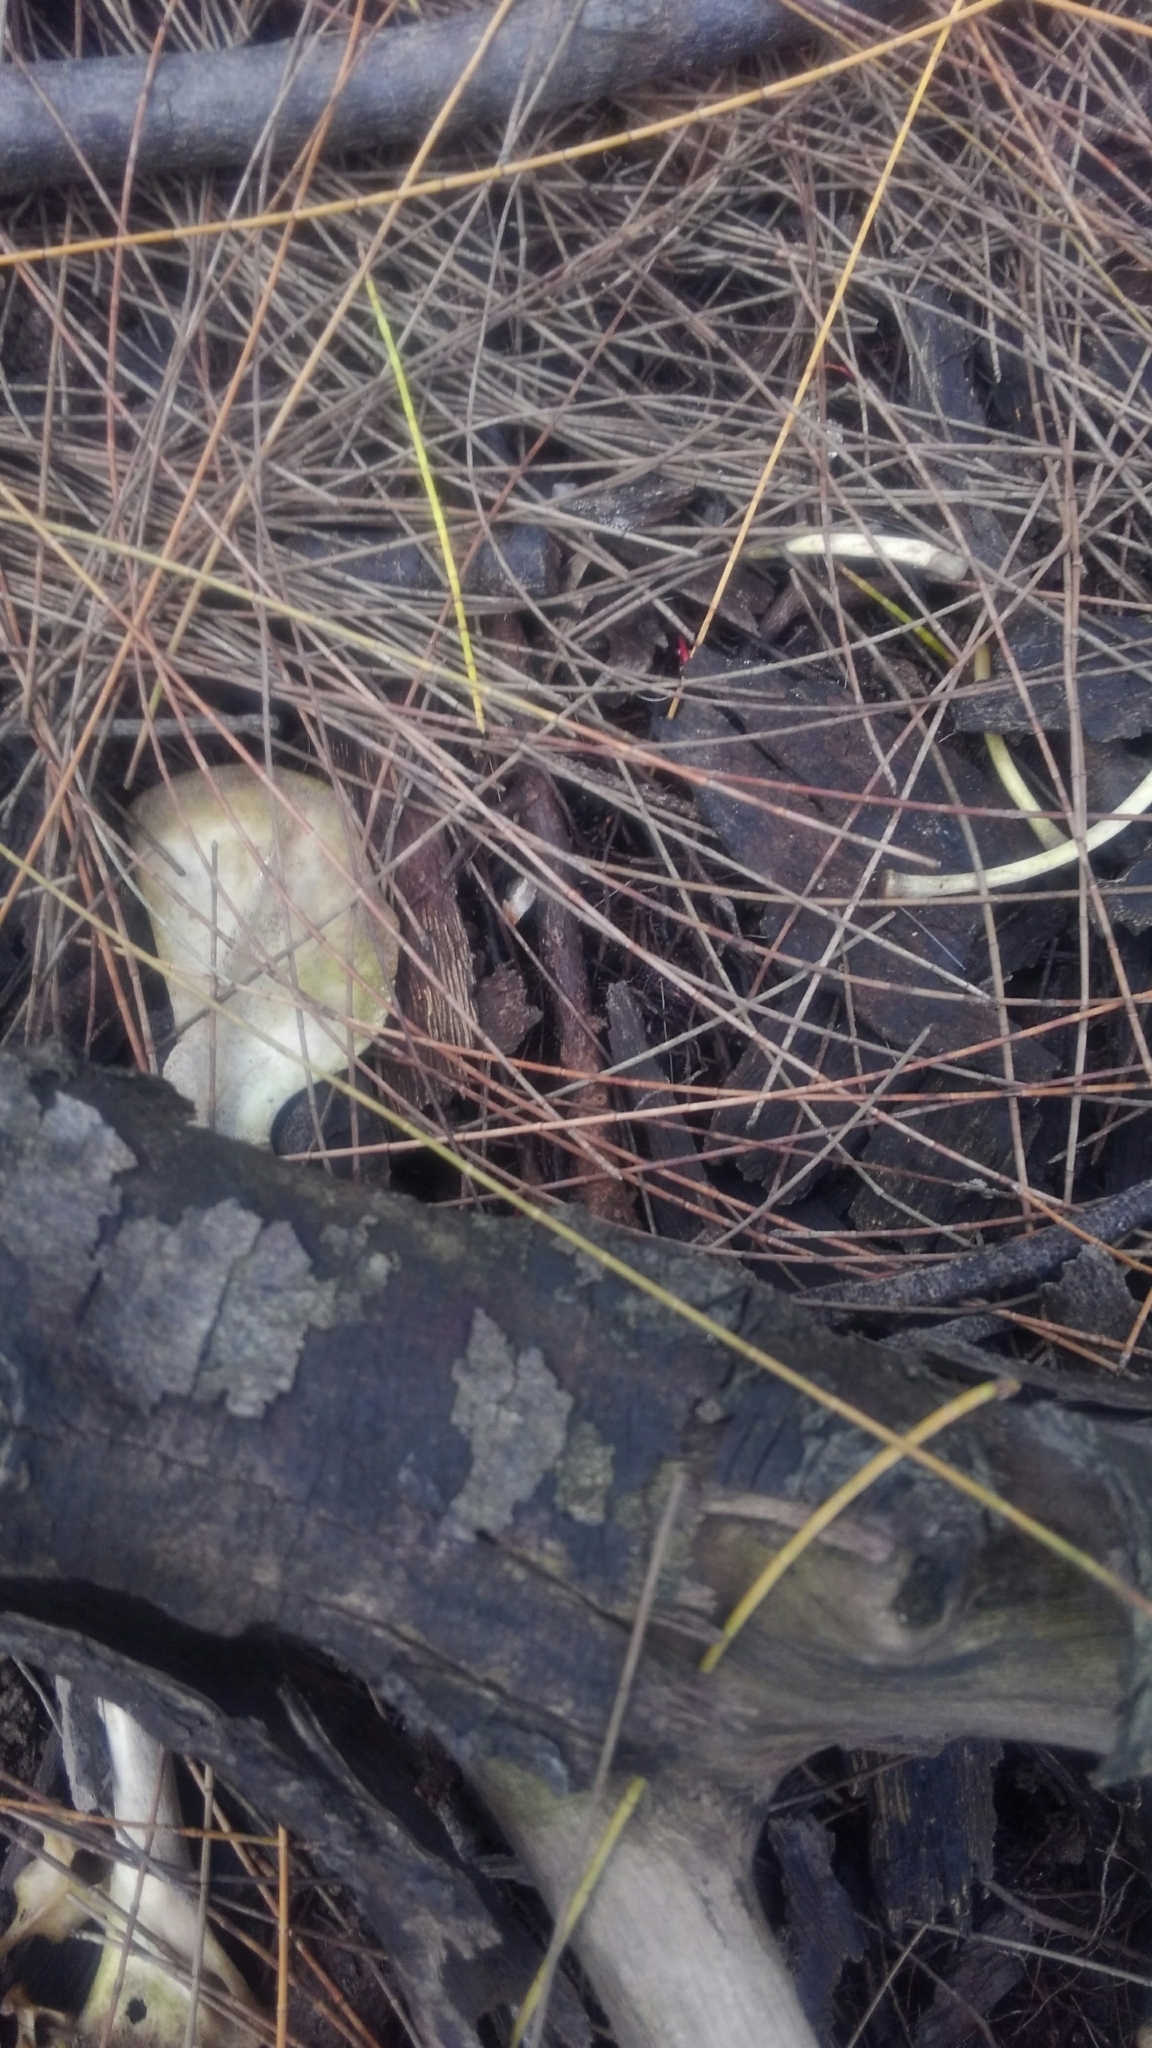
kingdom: Animalia
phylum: Chordata
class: Mammalia
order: Carnivora
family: Procyonidae
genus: Procyon
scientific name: Procyon lotor
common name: Raccoon
